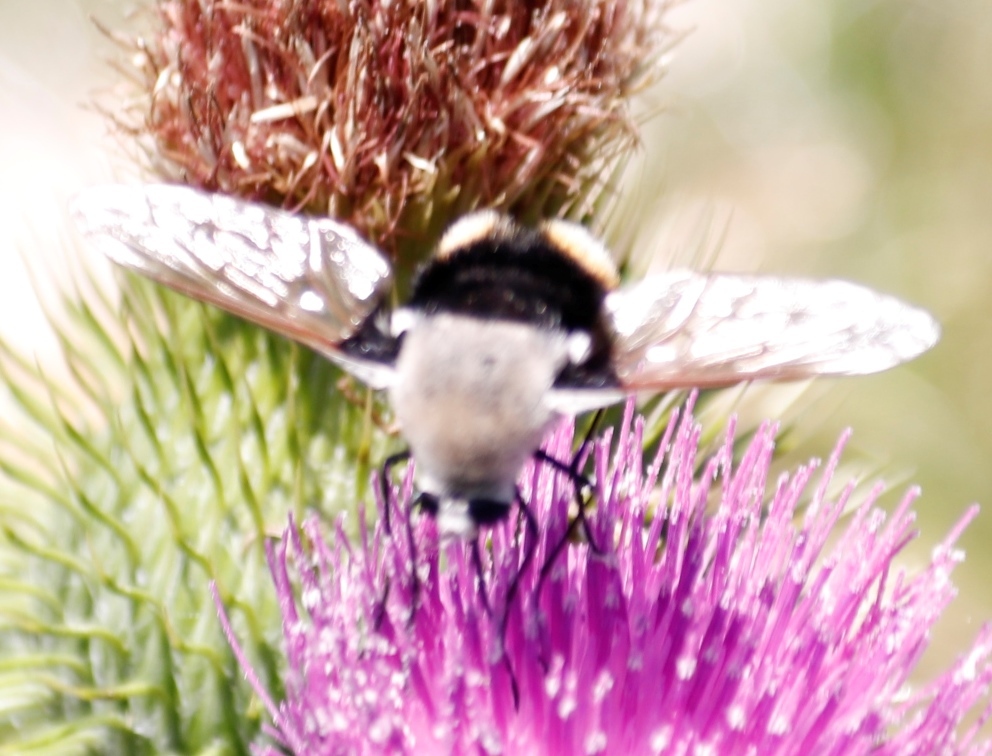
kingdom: Animalia
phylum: Arthropoda
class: Insecta
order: Diptera
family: Bombyliidae
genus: Bombomyia
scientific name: Bombomyia discoidea
